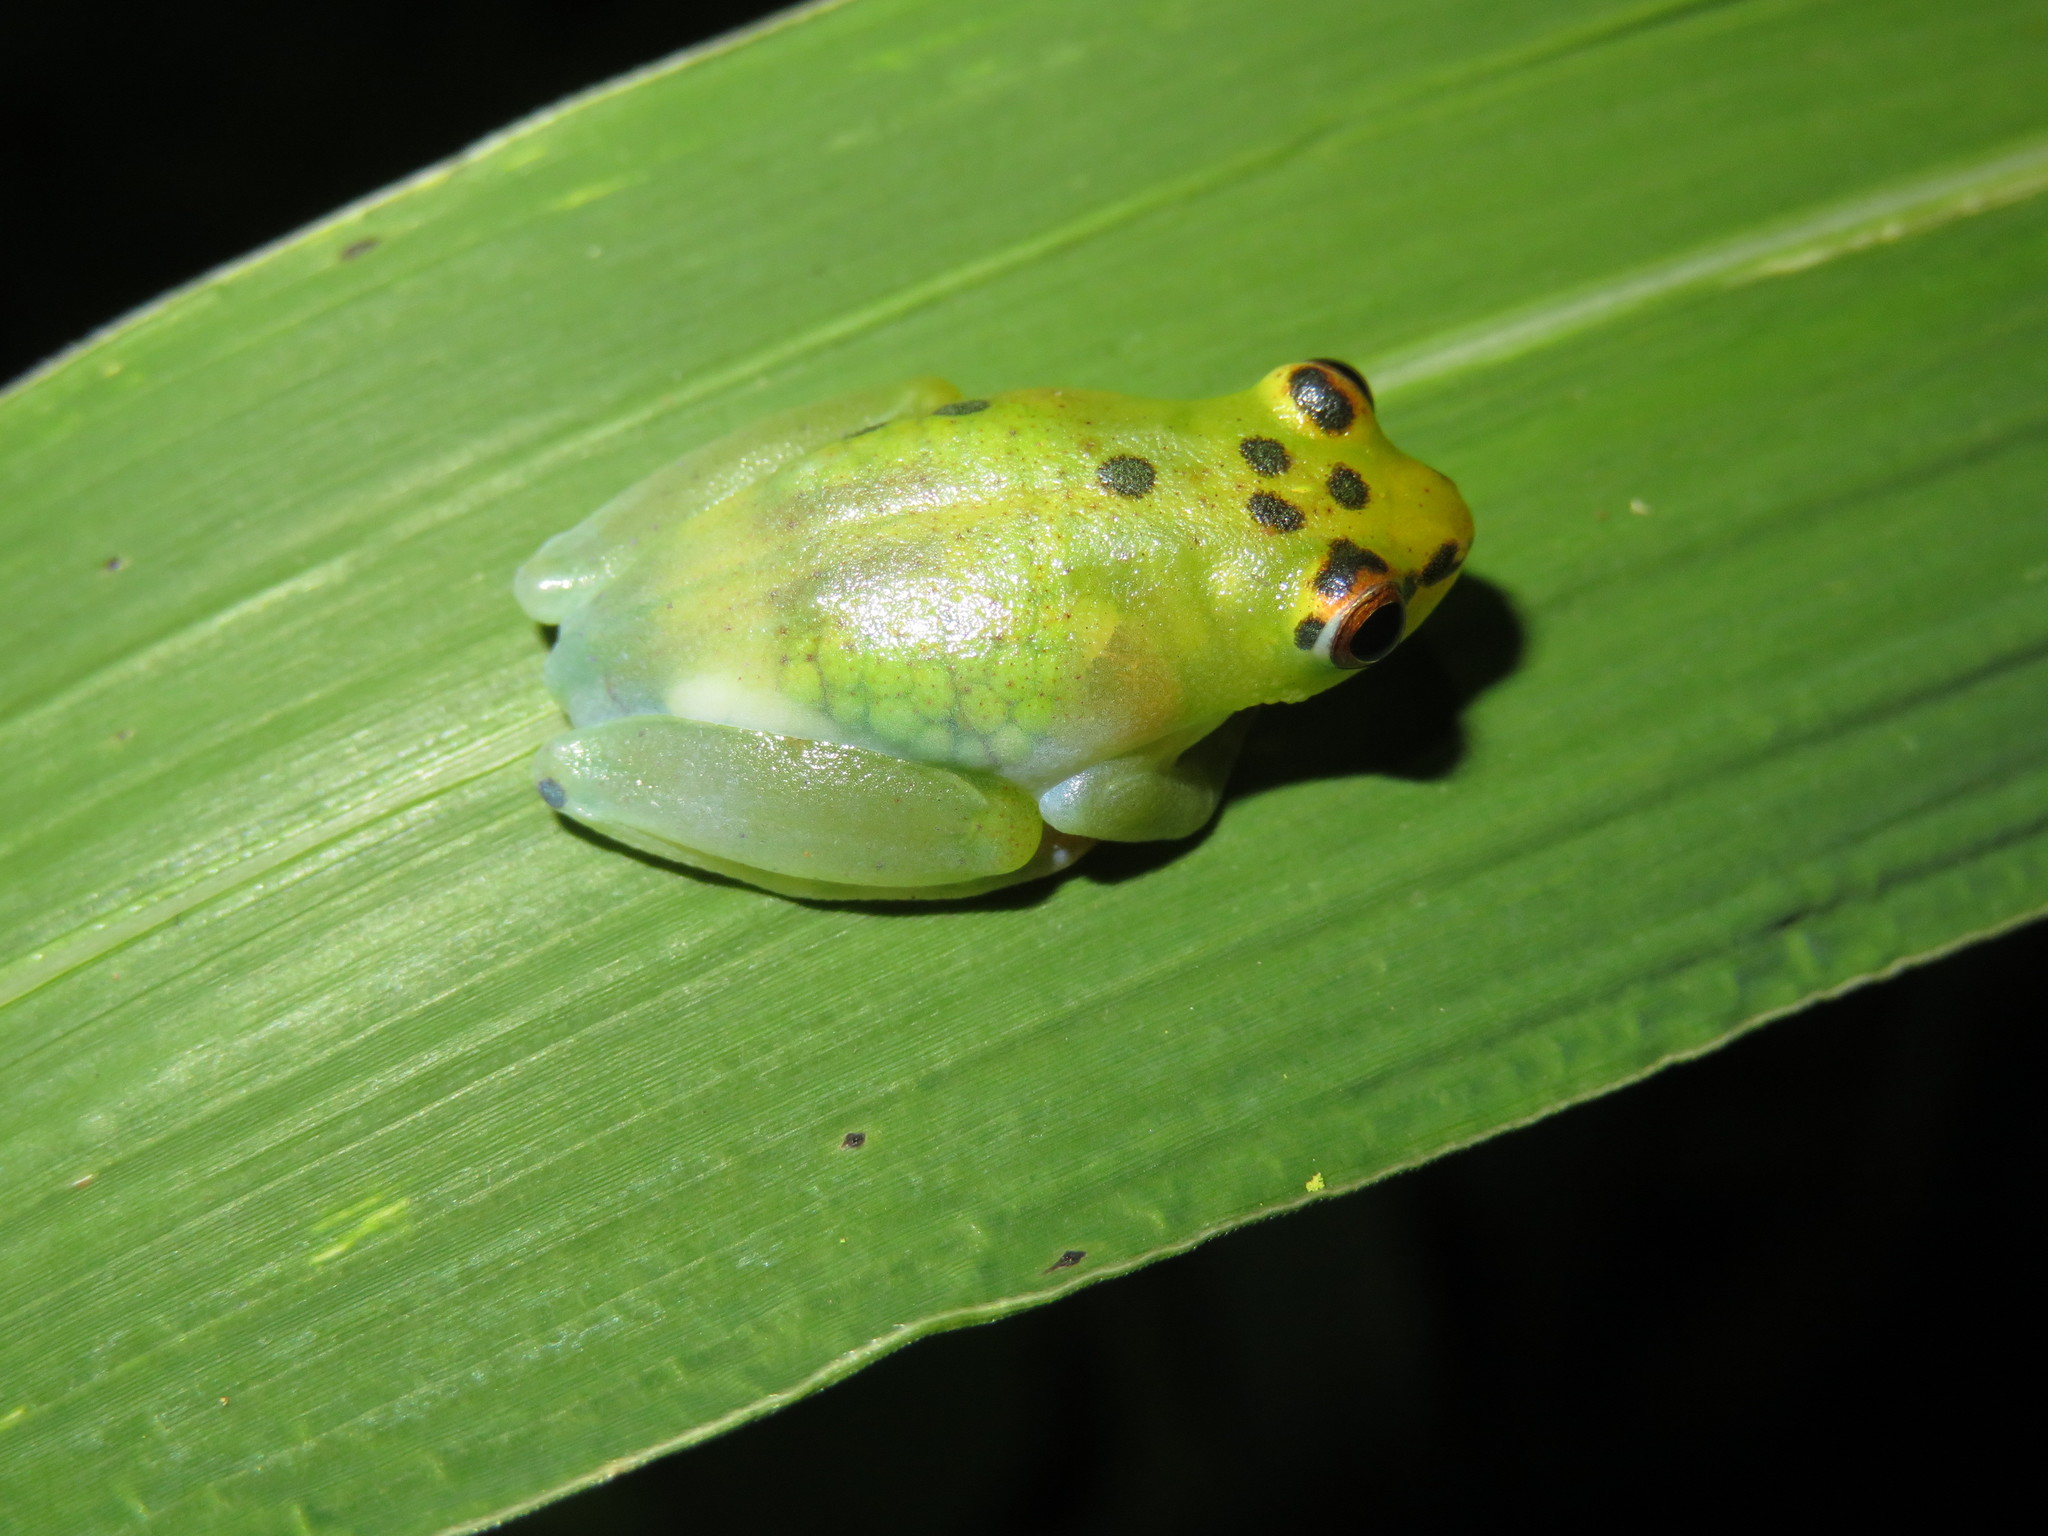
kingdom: Animalia
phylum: Chordata
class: Amphibia
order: Anura
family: Hyperoliidae
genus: Hyperolius
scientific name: Hyperolius pusillus
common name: Water lily reed frog
